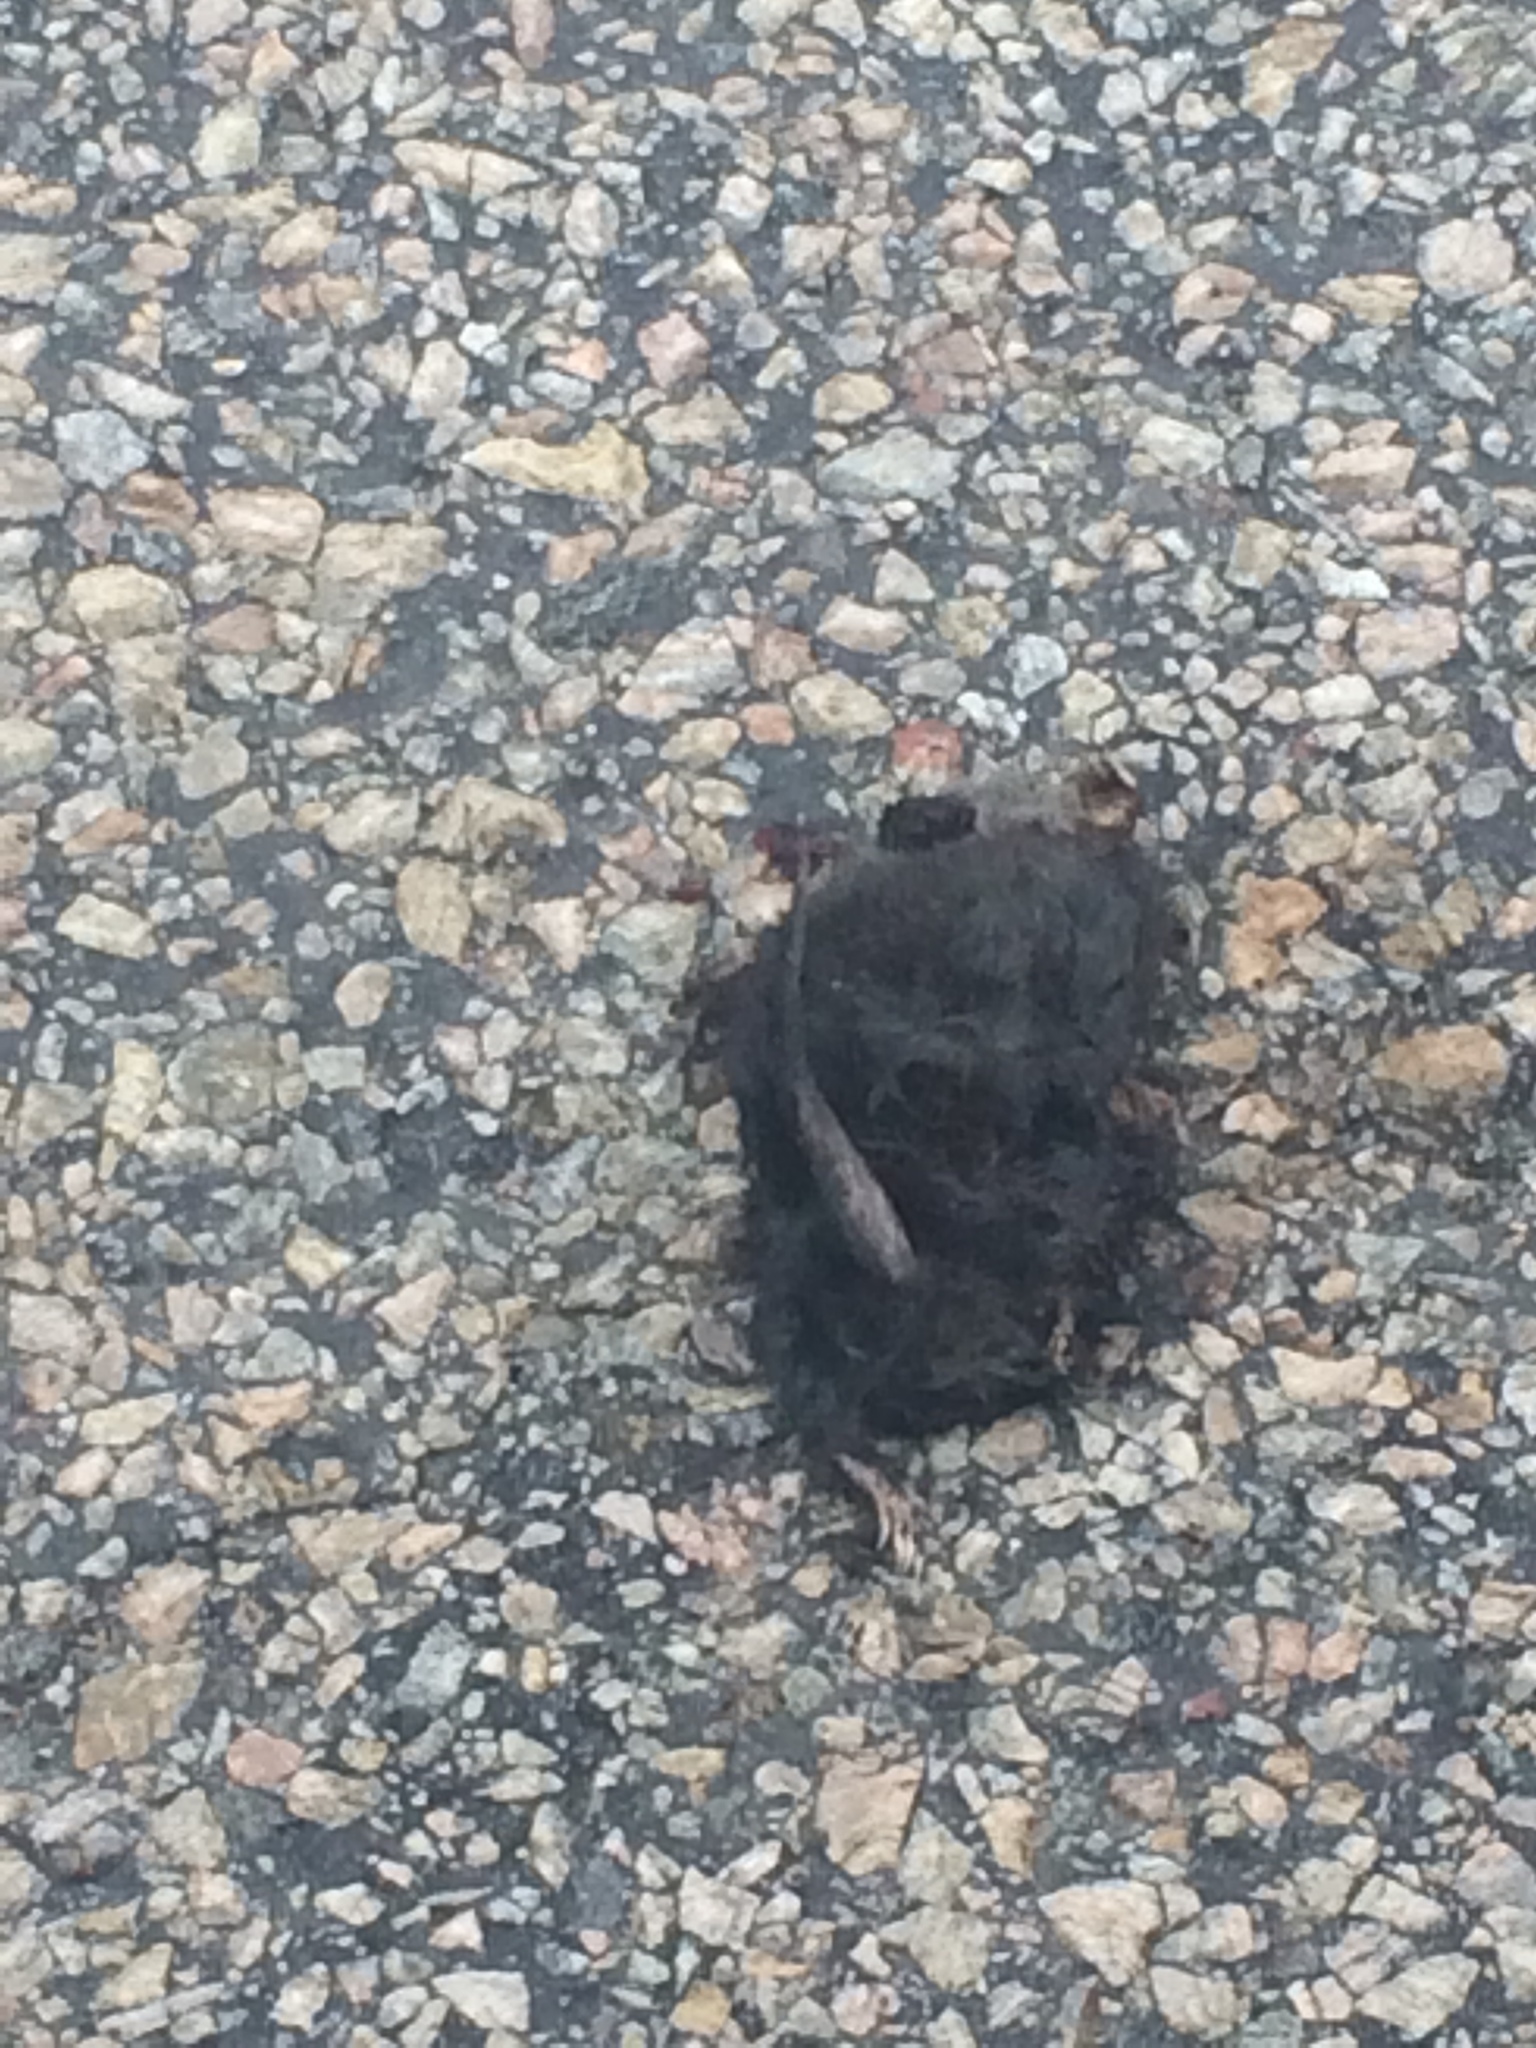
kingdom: Animalia
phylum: Chordata
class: Mammalia
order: Soricomorpha
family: Talpidae
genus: Condylura
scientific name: Condylura cristata
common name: Star-nosed mole
